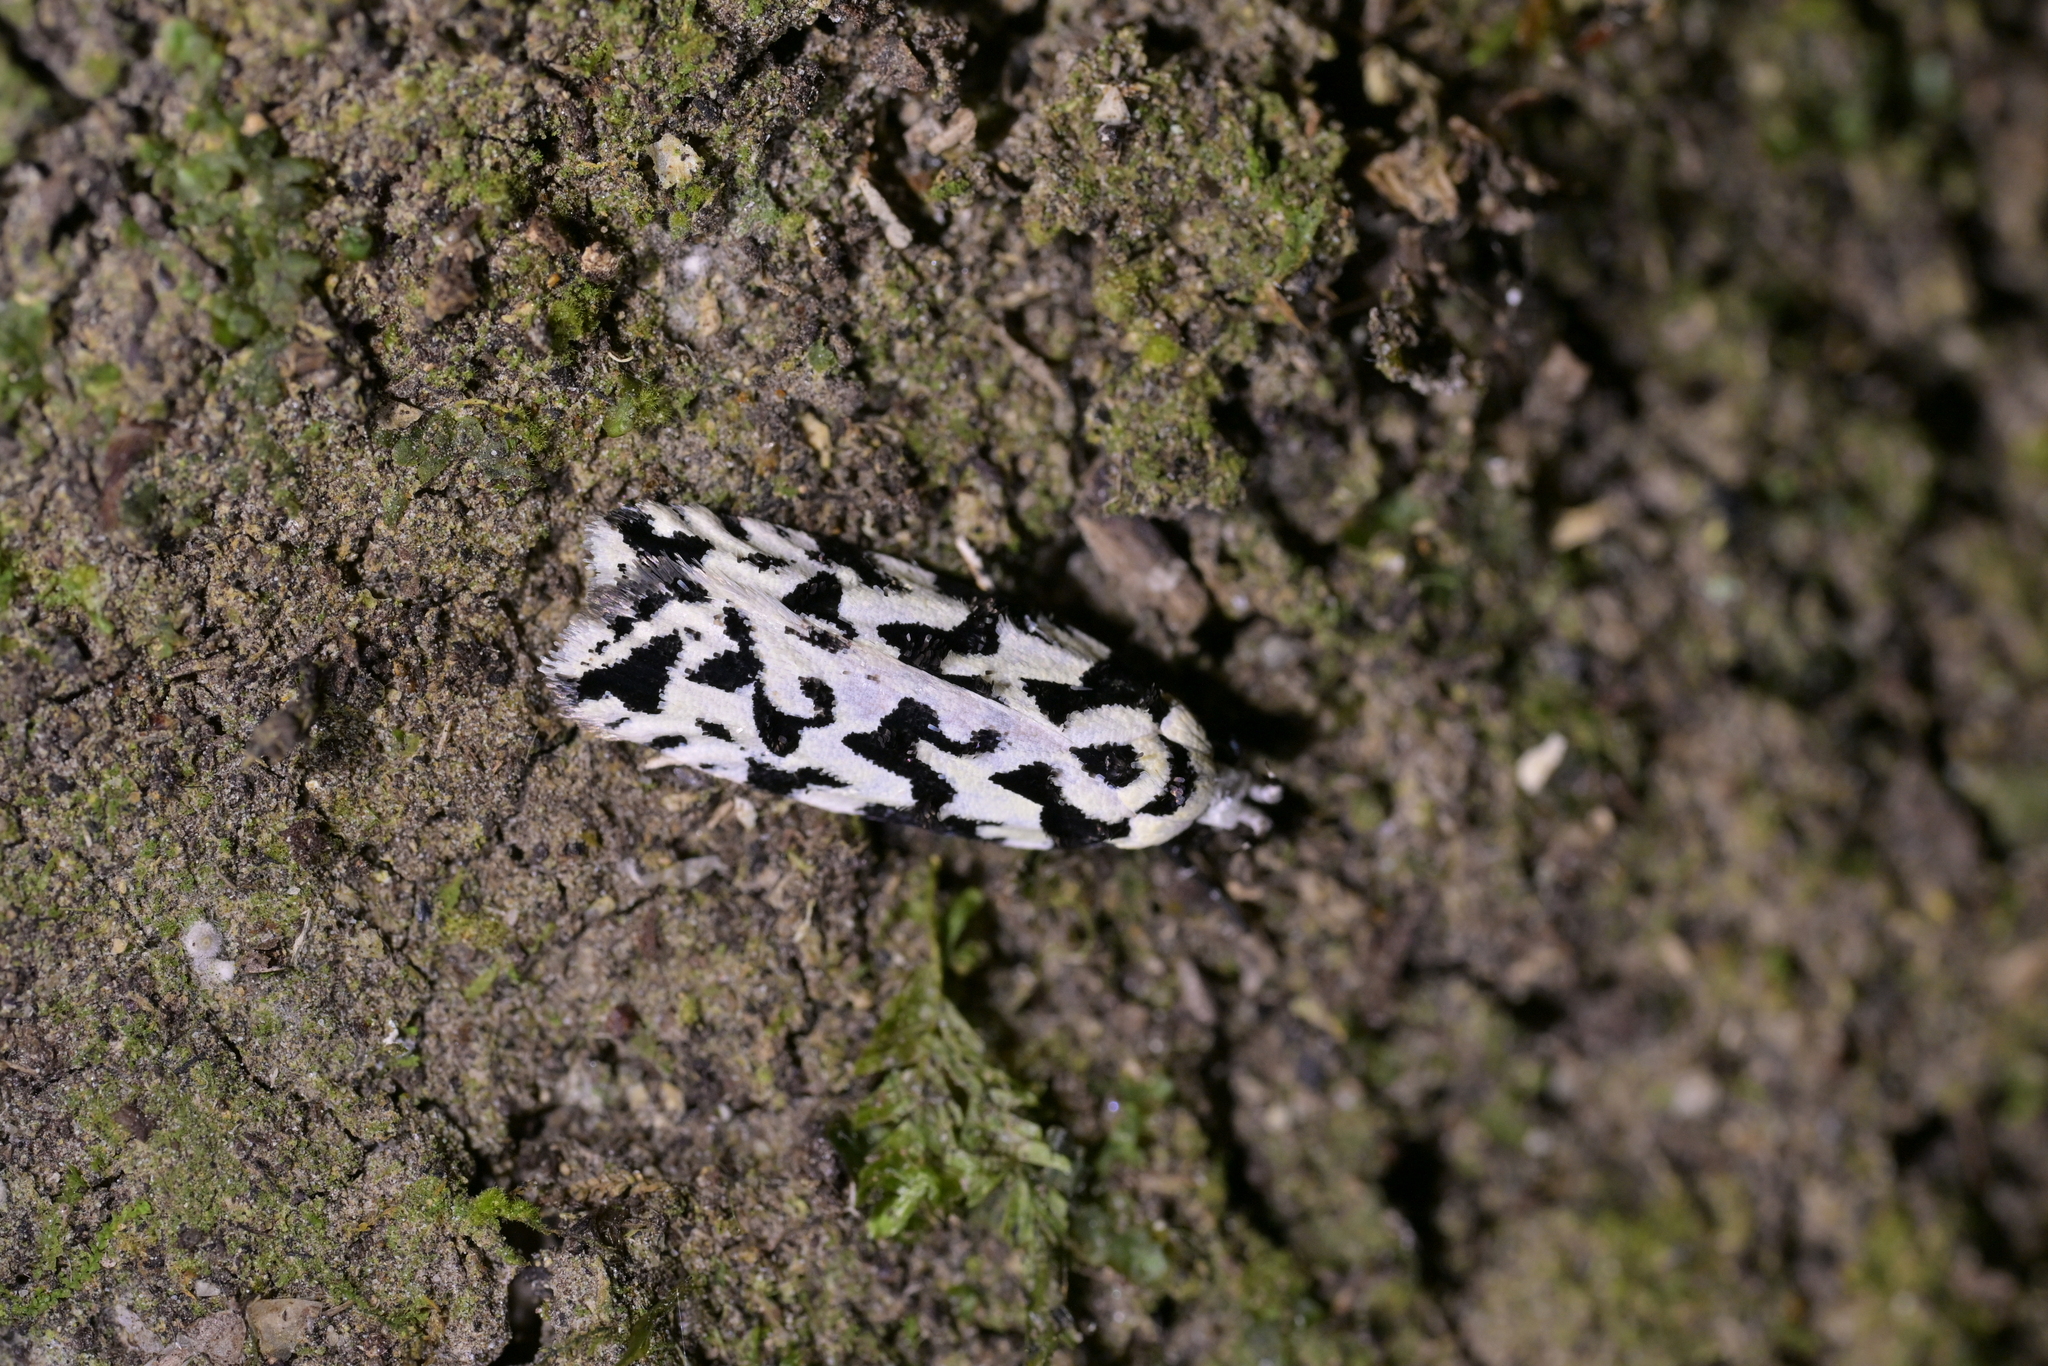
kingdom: Animalia
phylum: Arthropoda
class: Insecta
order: Lepidoptera
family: Oecophoridae
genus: Izatha
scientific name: Izatha
